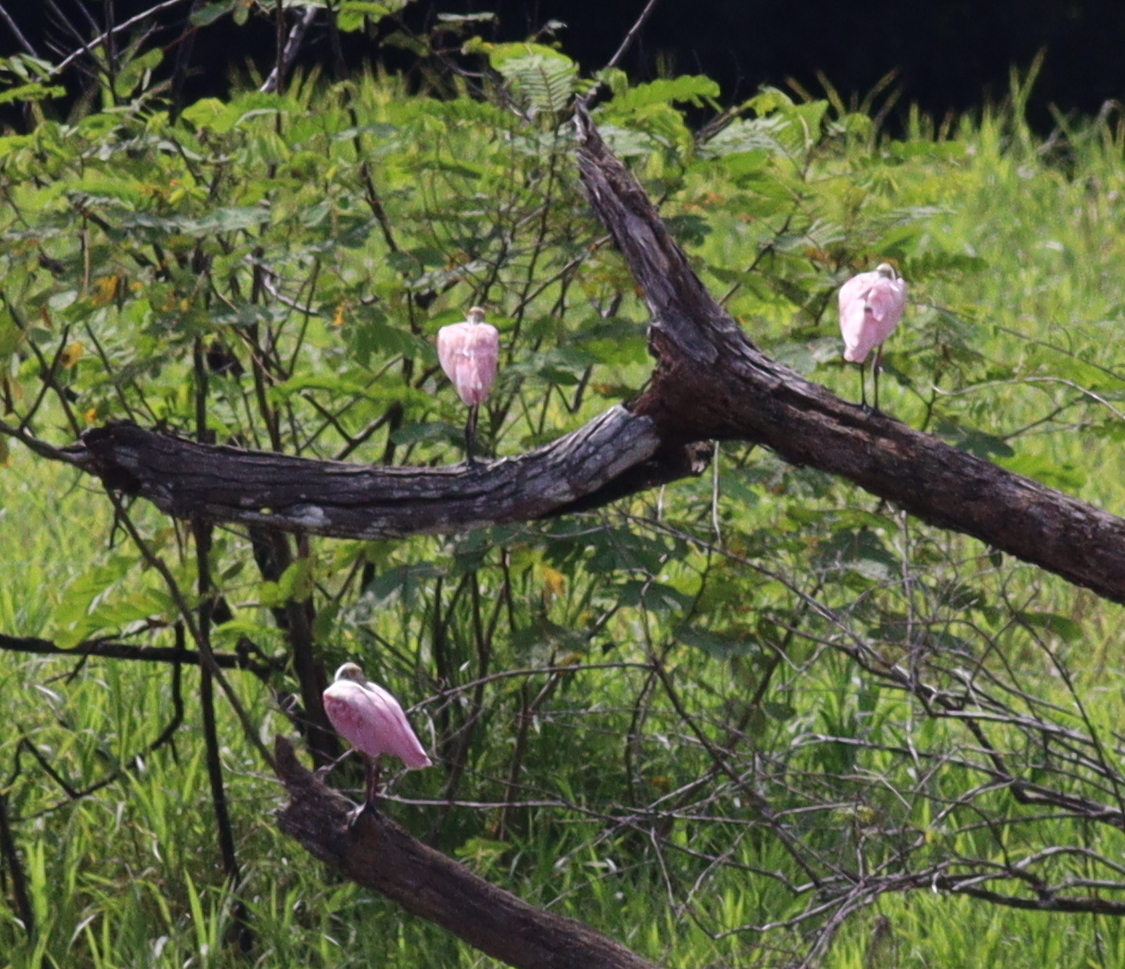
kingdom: Animalia
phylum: Chordata
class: Aves
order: Pelecaniformes
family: Threskiornithidae
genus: Platalea
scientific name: Platalea ajaja
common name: Roseate spoonbill
